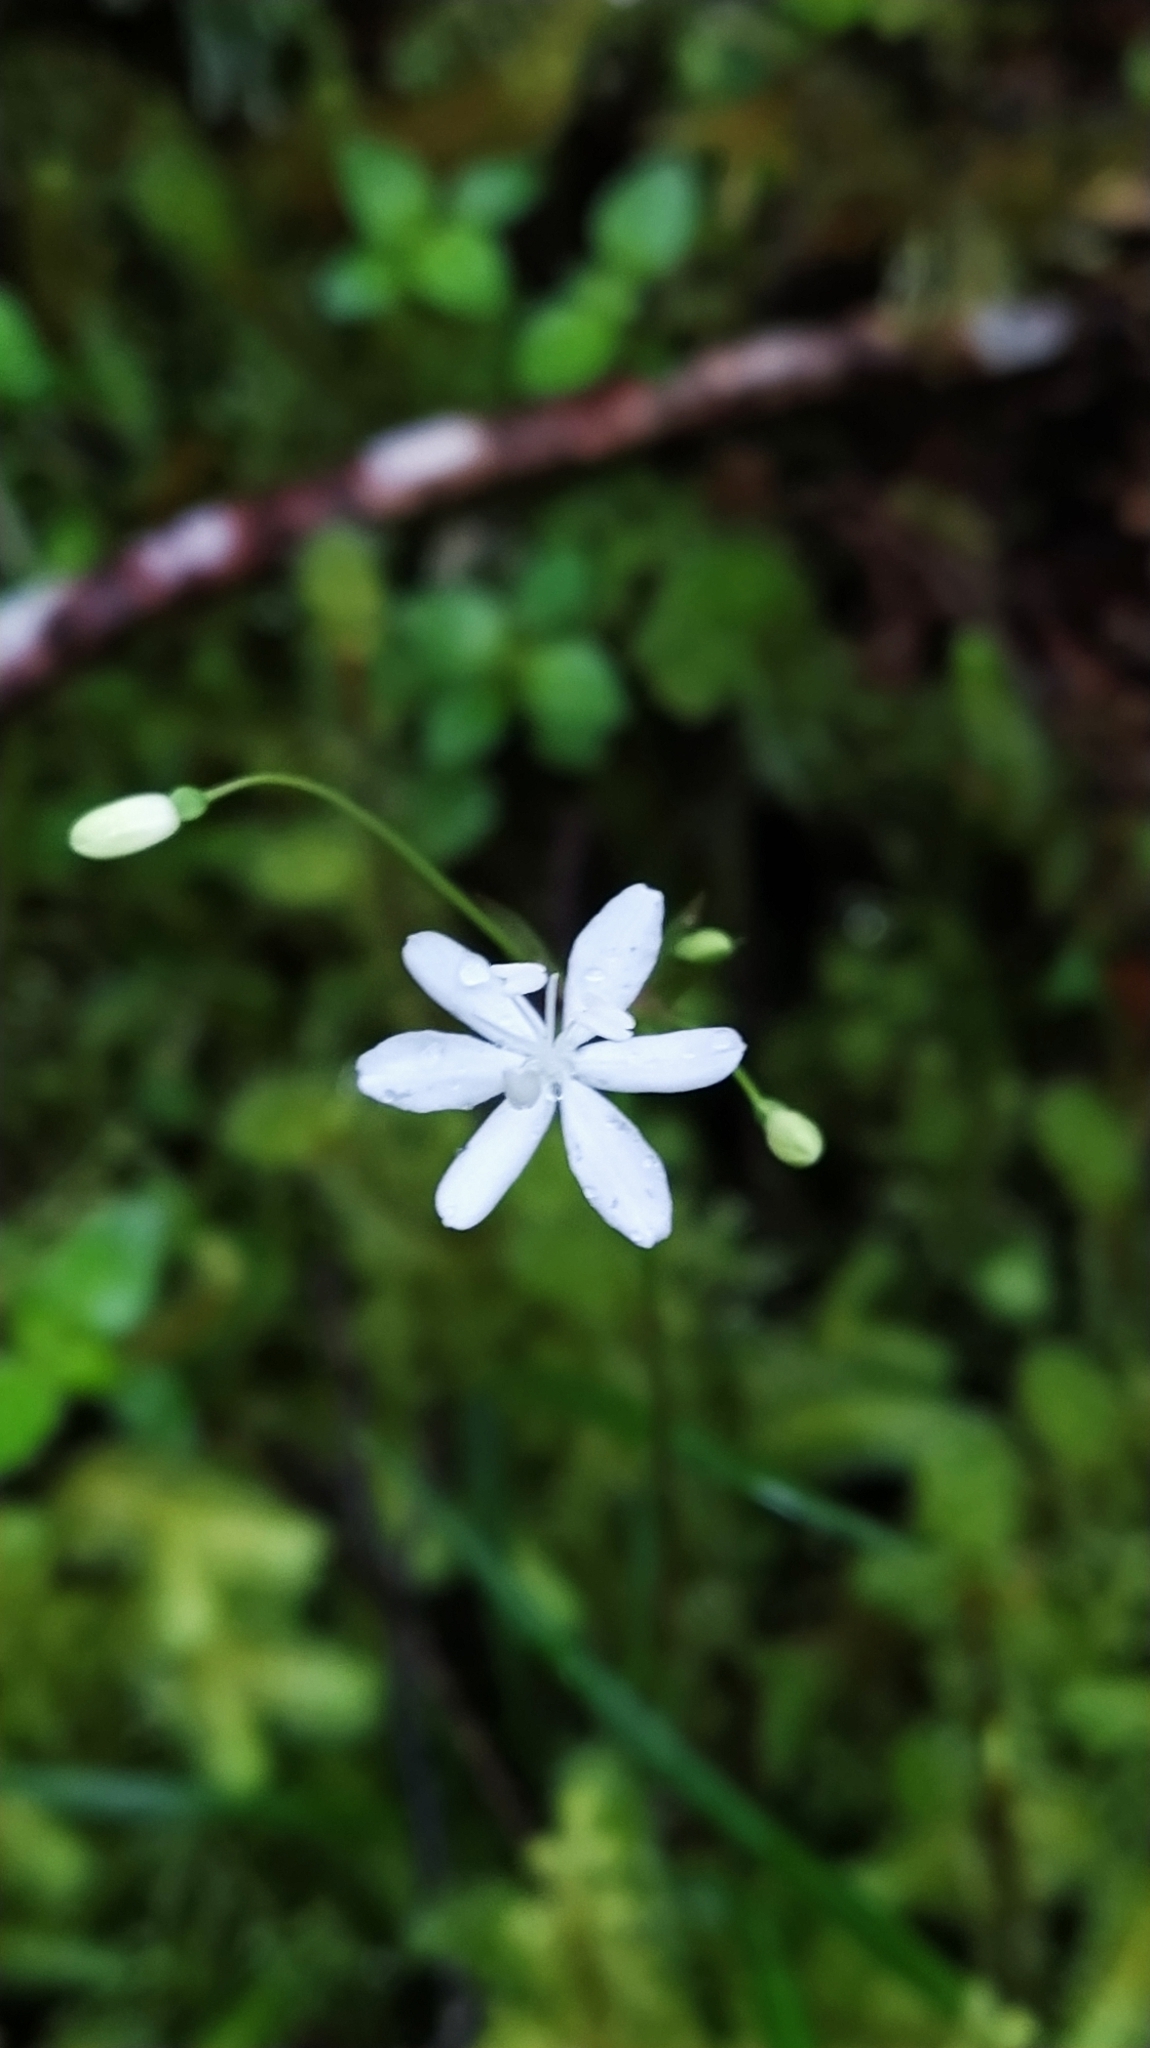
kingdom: Plantae
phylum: Tracheophyta
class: Liliopsida
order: Asparagales
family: Iridaceae
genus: Libertia
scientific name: Libertia micrantha
